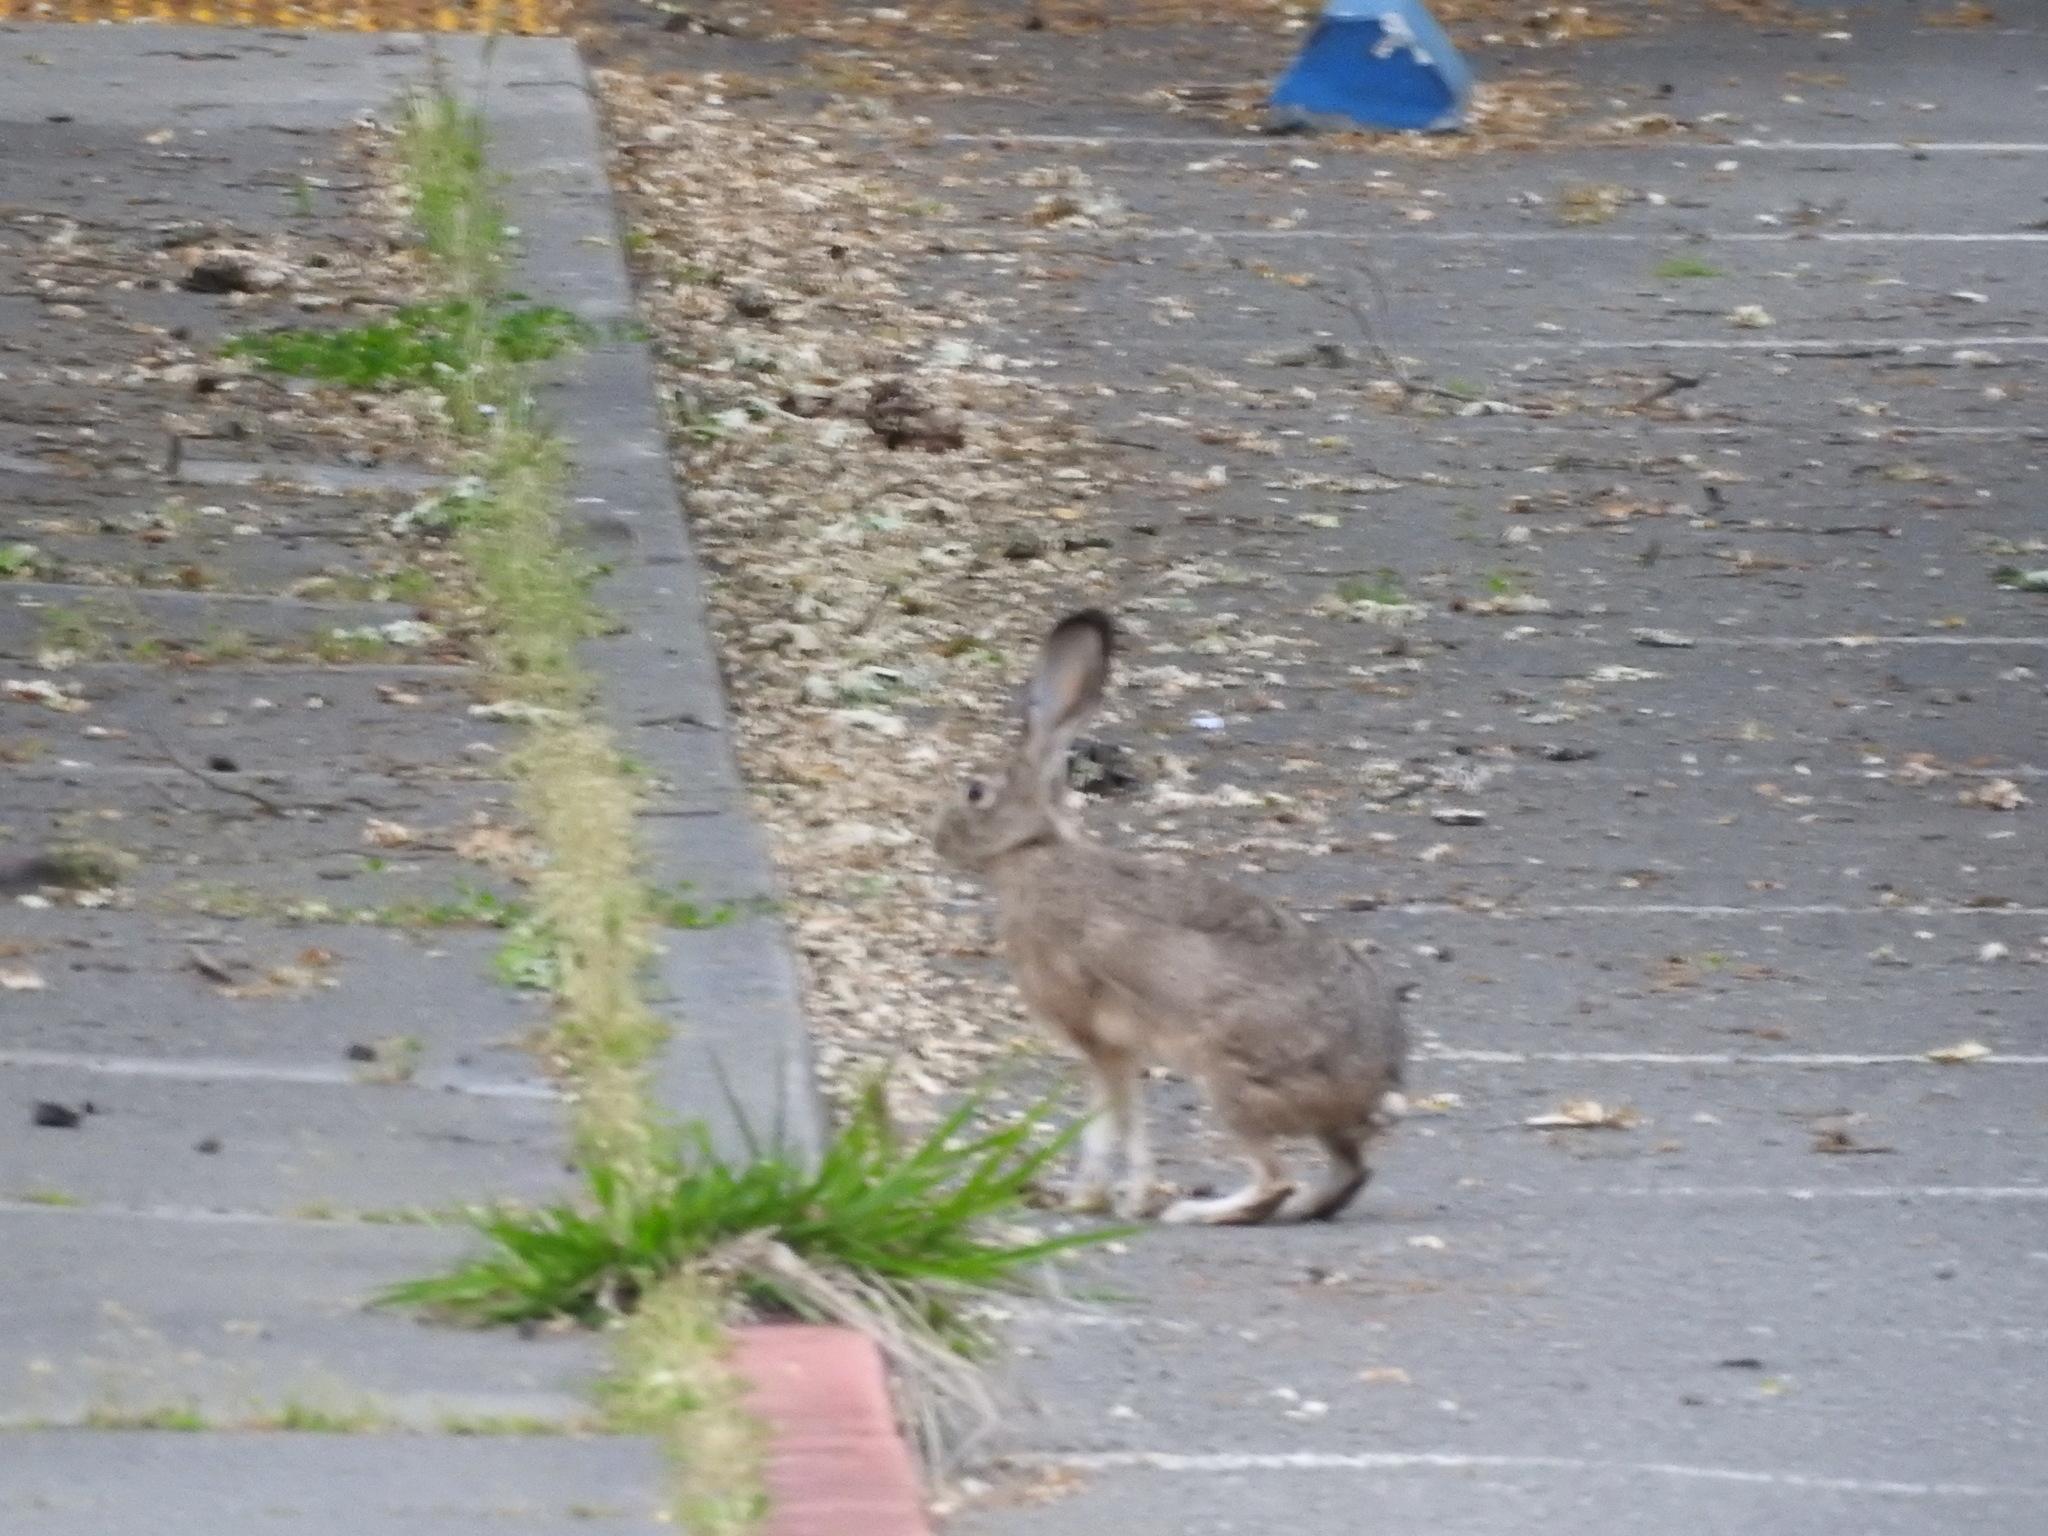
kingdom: Animalia
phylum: Chordata
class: Mammalia
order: Lagomorpha
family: Leporidae
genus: Lepus
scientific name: Lepus californicus
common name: Black-tailed jackrabbit
